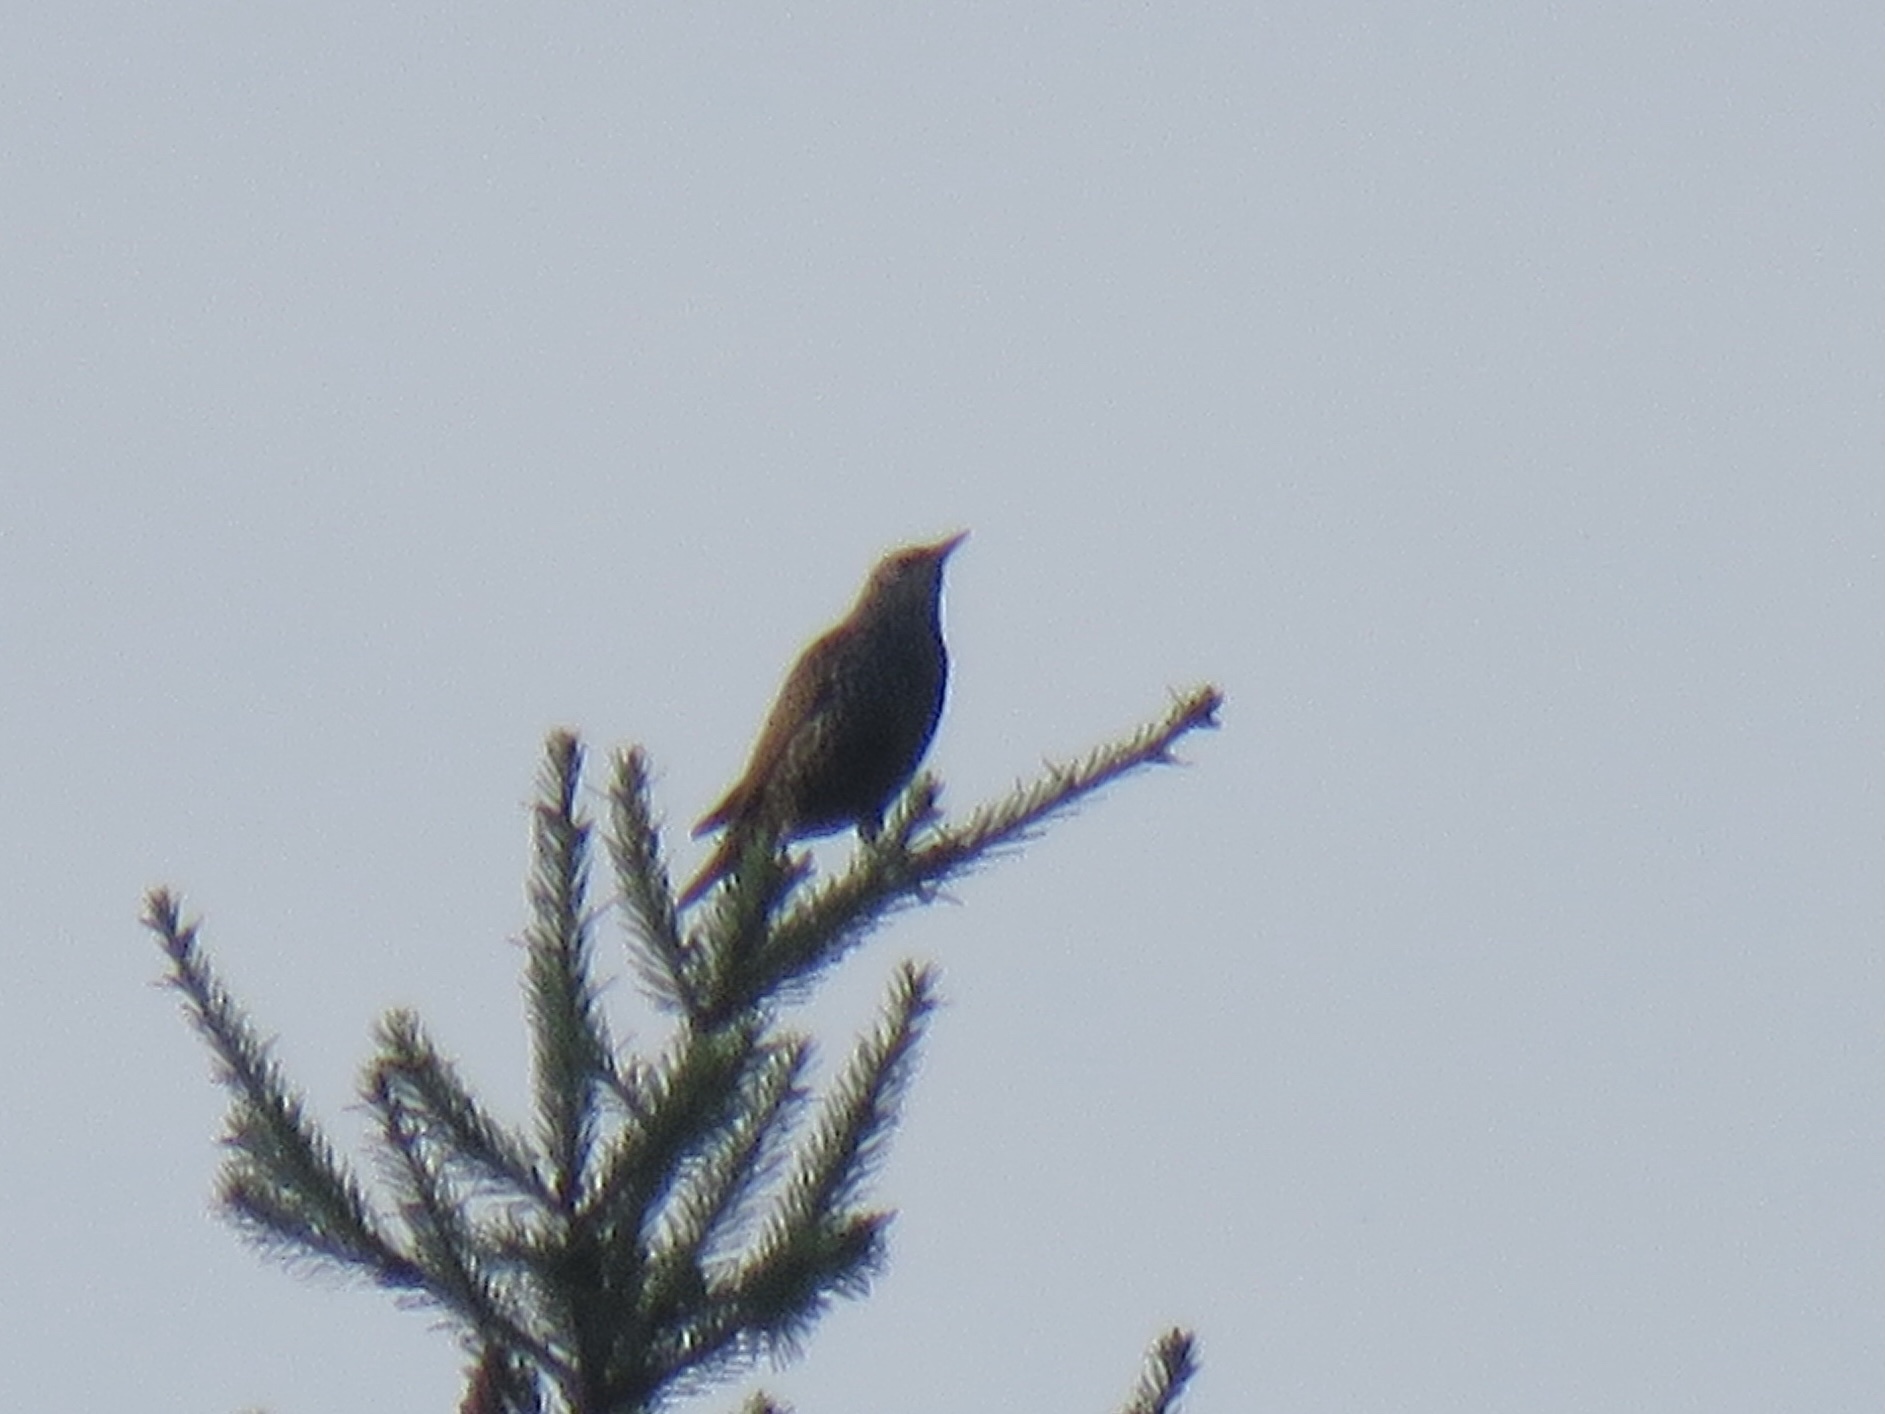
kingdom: Animalia
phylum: Chordata
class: Aves
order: Passeriformes
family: Sturnidae
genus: Sturnus
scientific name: Sturnus vulgaris
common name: Common starling
